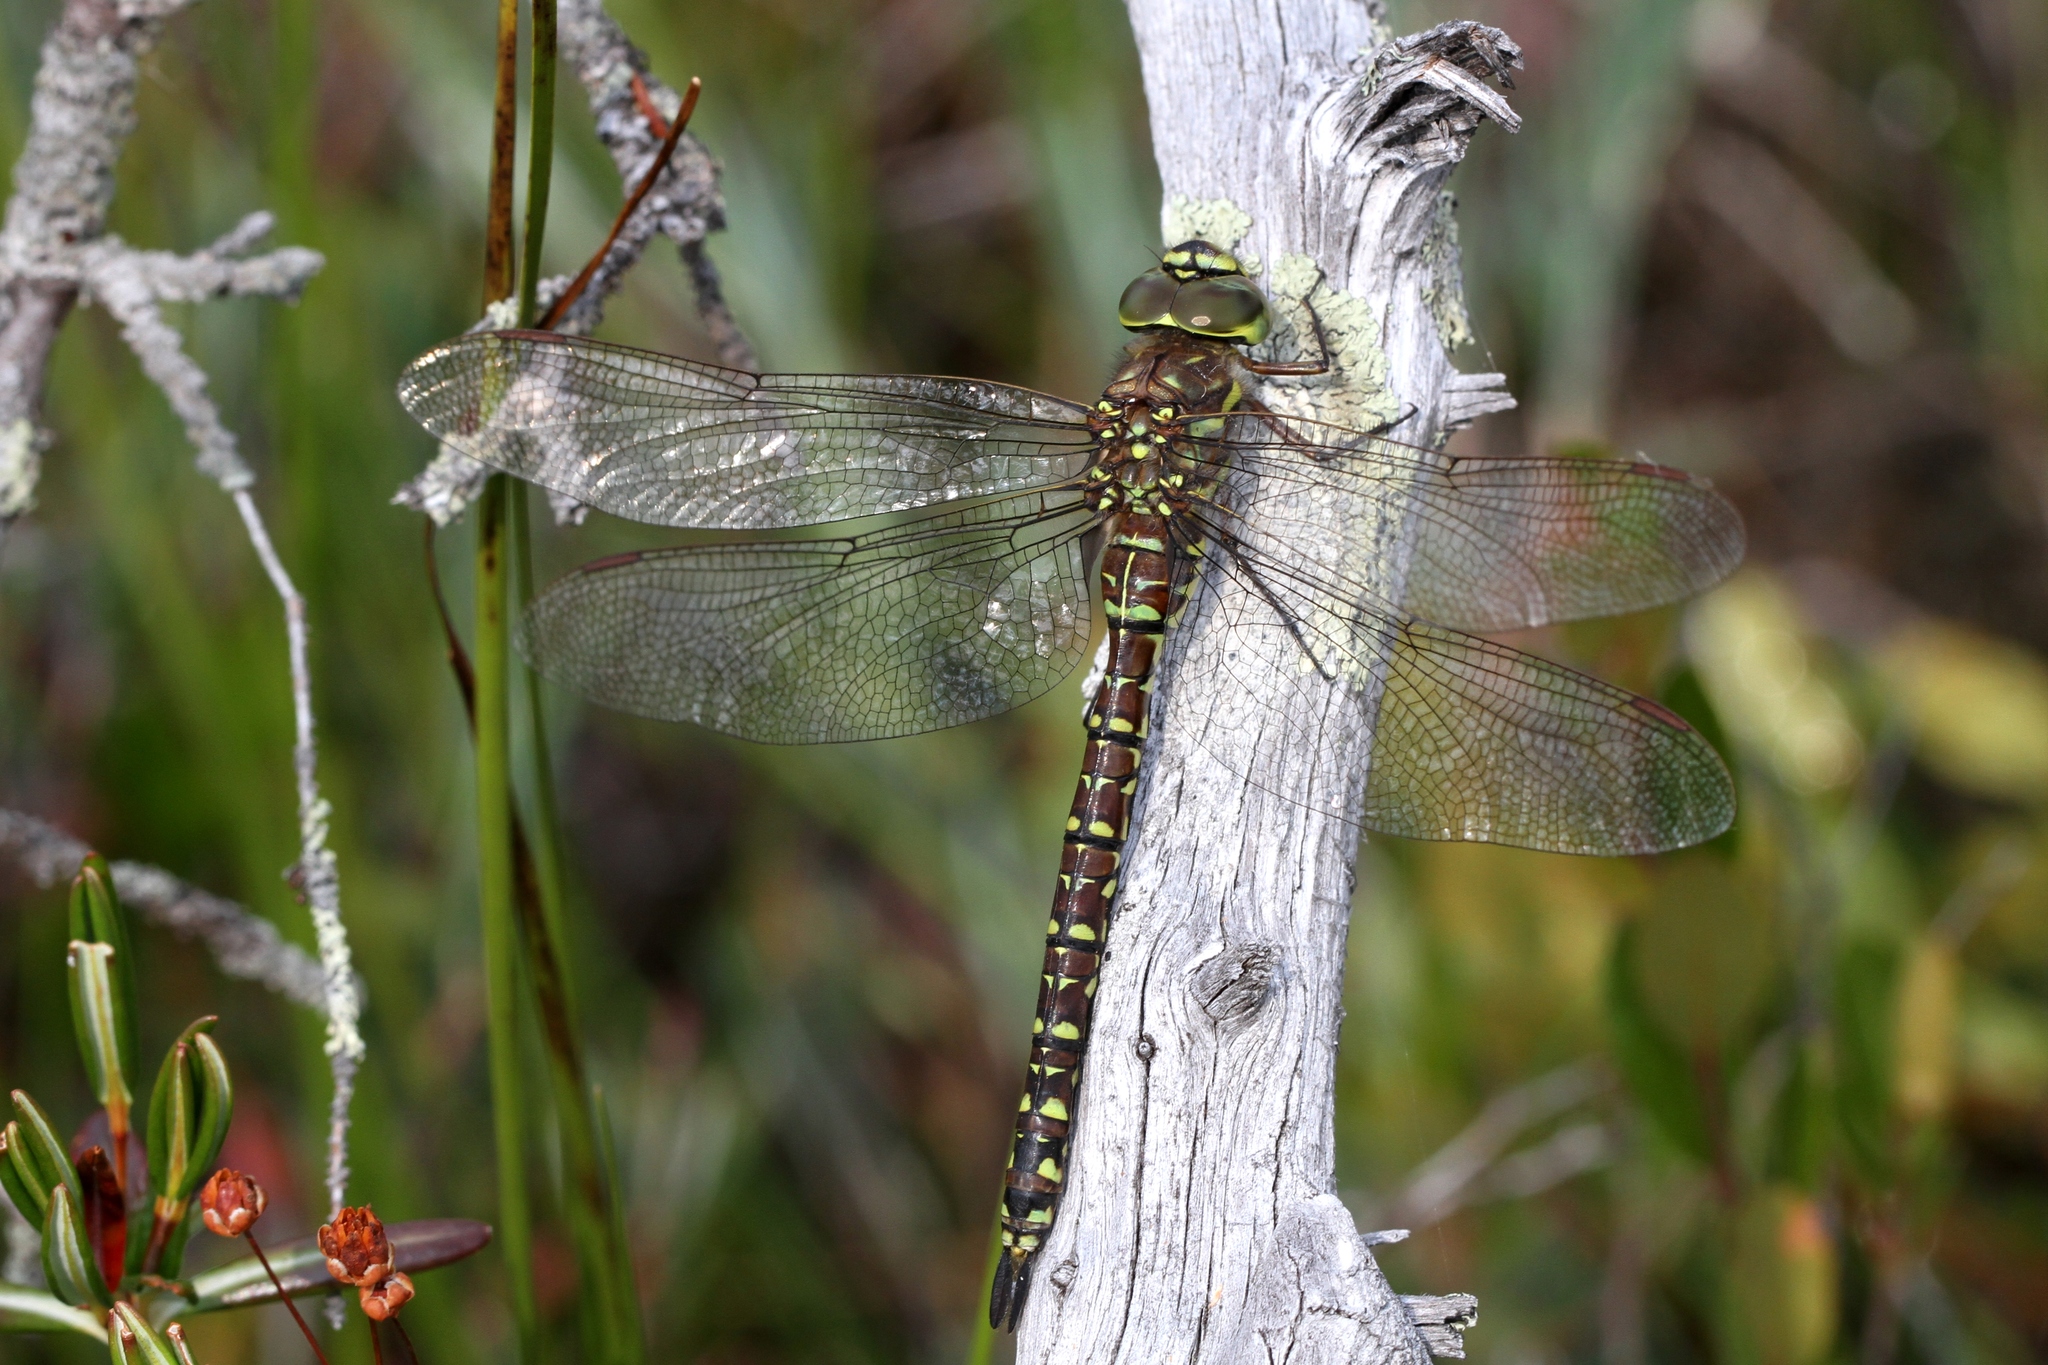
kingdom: Animalia
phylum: Arthropoda
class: Insecta
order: Odonata
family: Aeshnidae
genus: Aeshna
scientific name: Aeshna subarctica
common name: Subarctic darner
